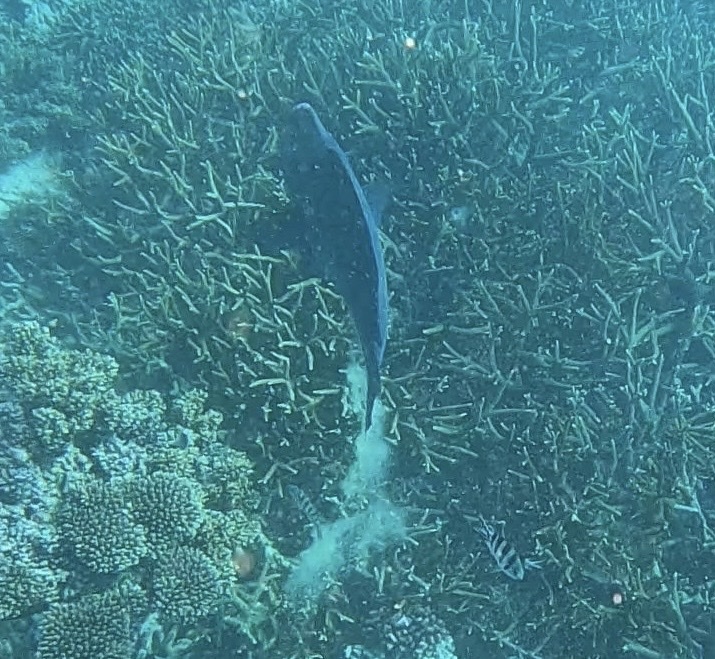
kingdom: Animalia
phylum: Chordata
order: Perciformes
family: Scaridae
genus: Bolbometopon
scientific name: Bolbometopon muricatum
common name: Humphead parrotfish
